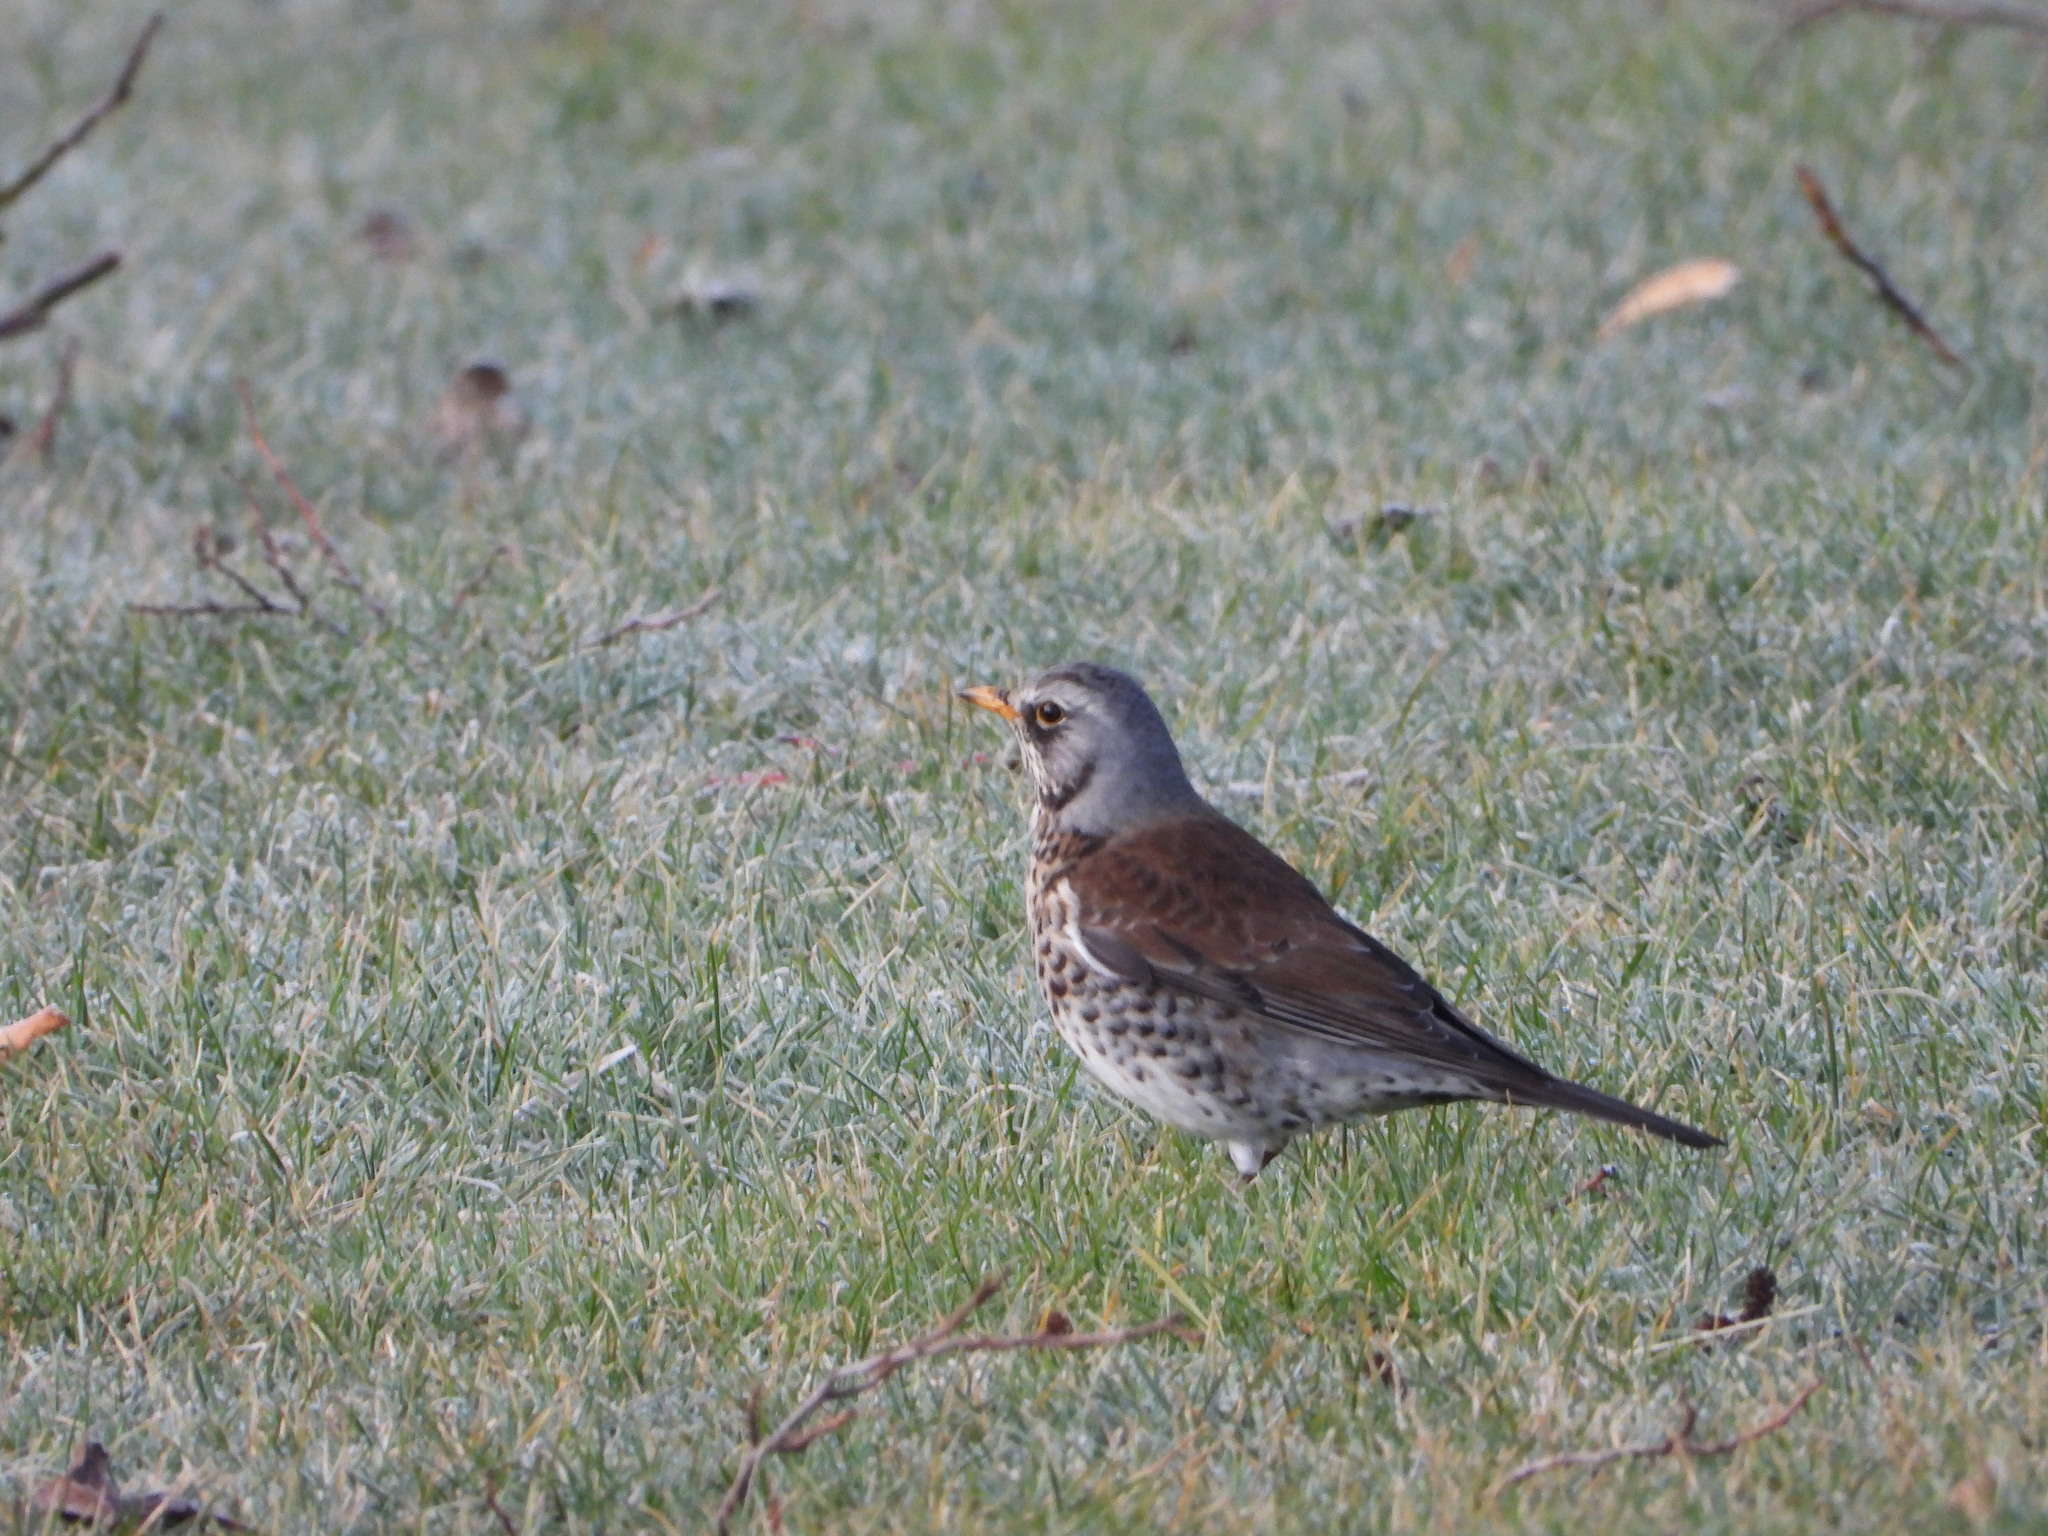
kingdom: Animalia
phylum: Chordata
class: Aves
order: Passeriformes
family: Turdidae
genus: Turdus
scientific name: Turdus pilaris
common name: Fieldfare
